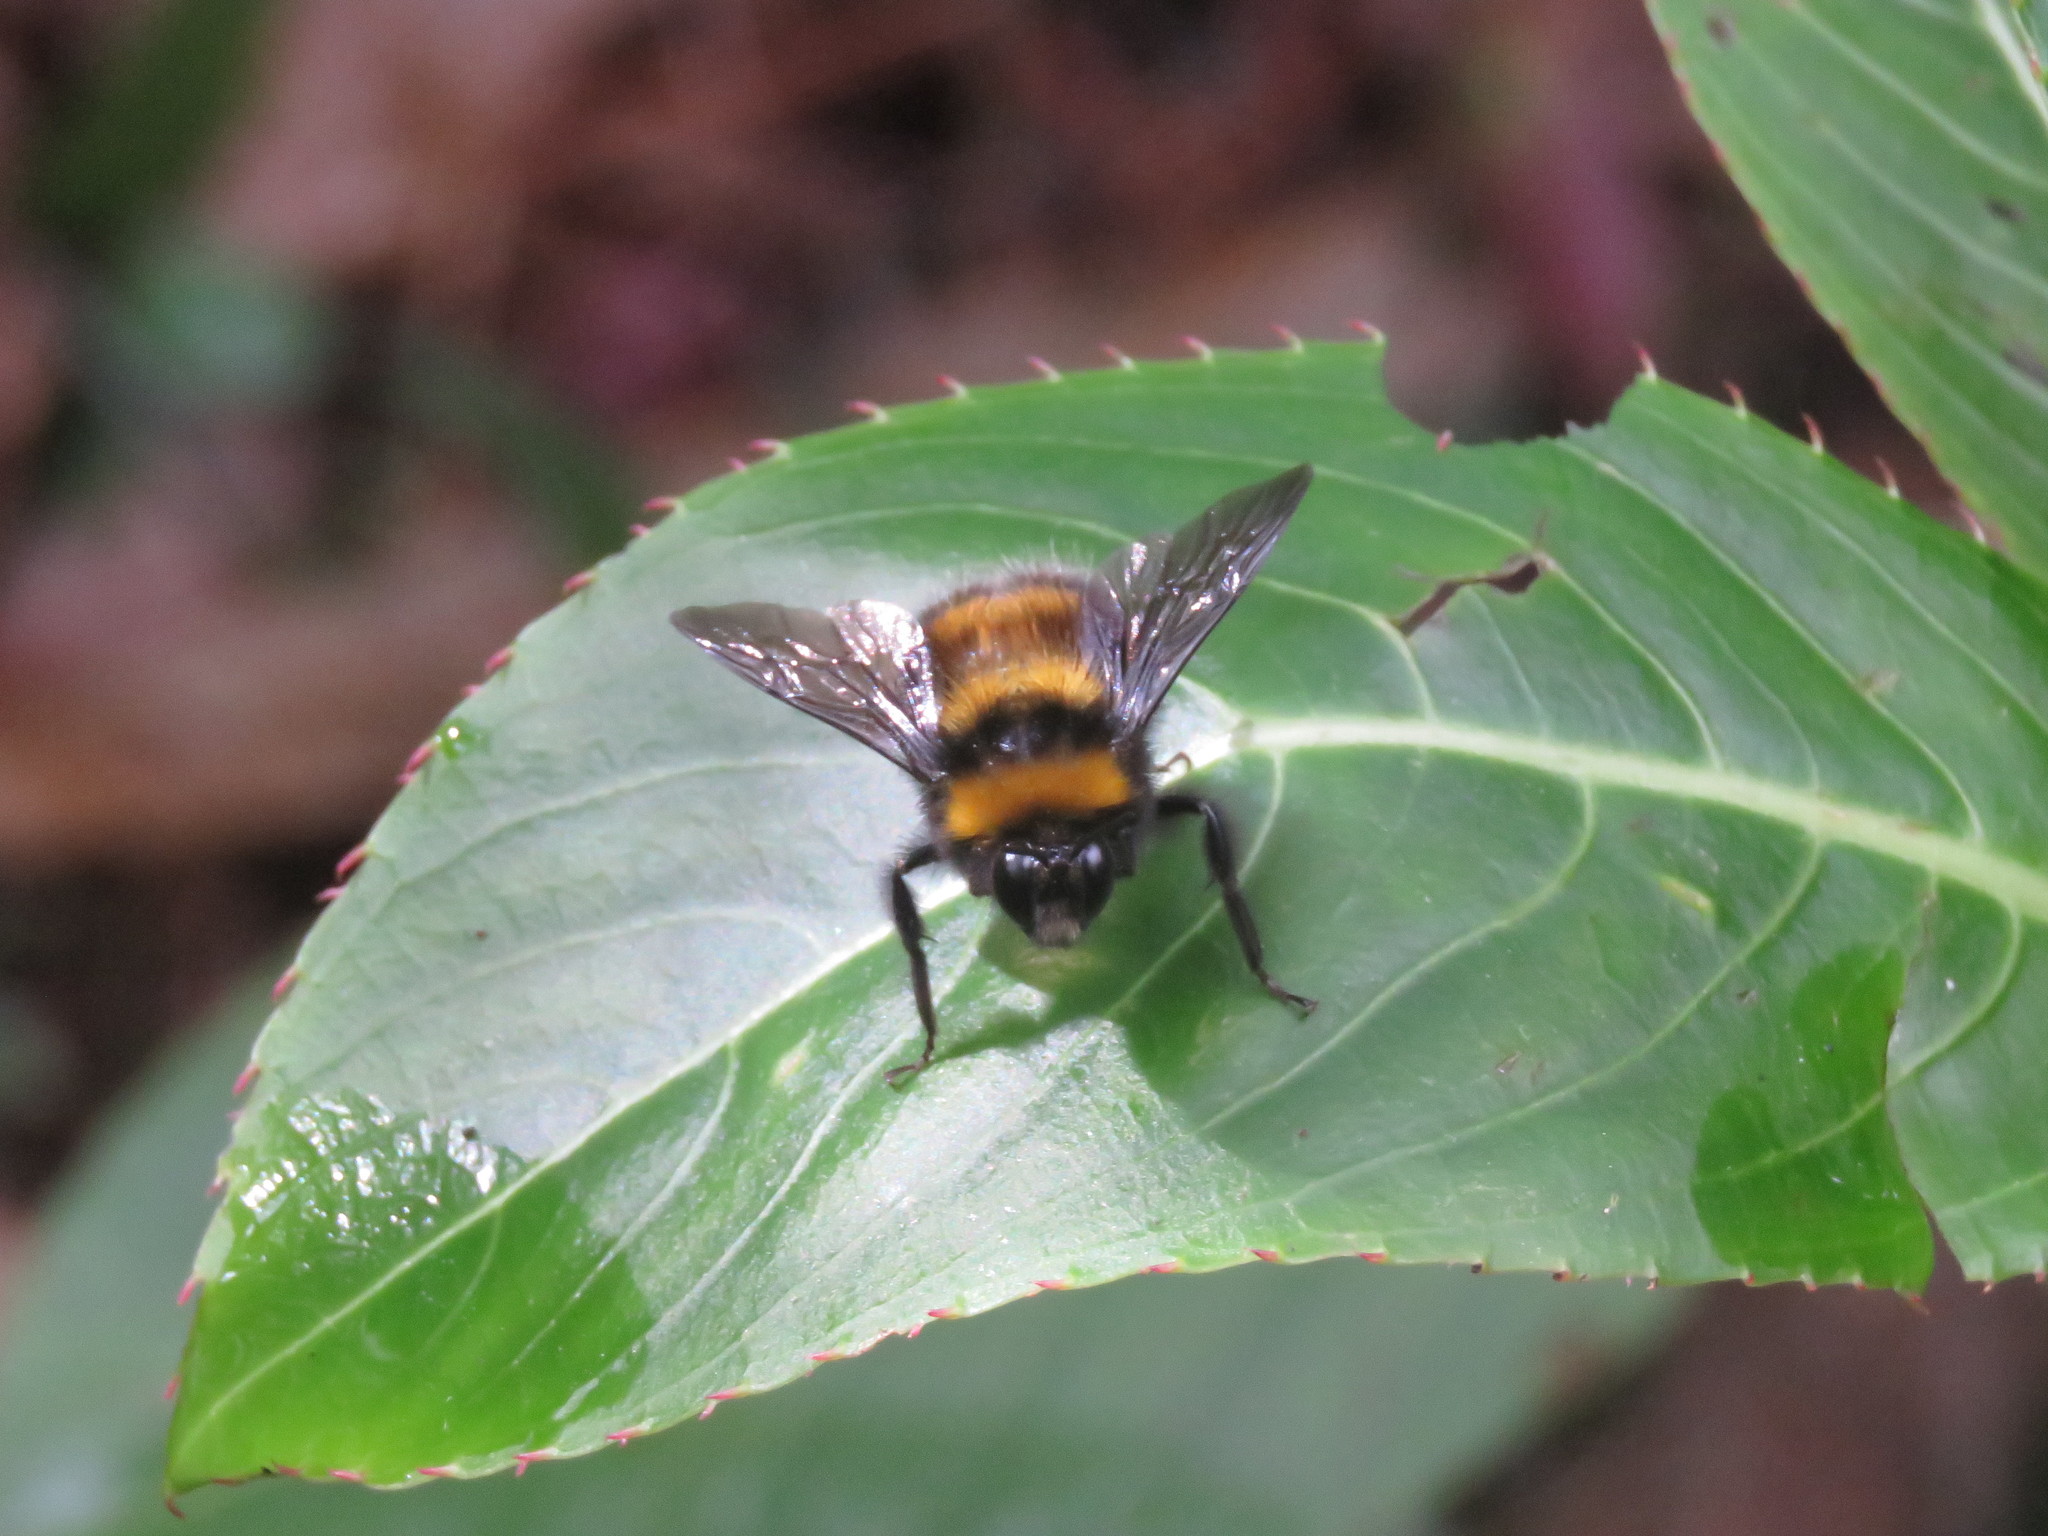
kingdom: Animalia
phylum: Arthropoda
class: Insecta
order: Hymenoptera
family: Apidae
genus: Bombus
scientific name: Bombus hortulanus
